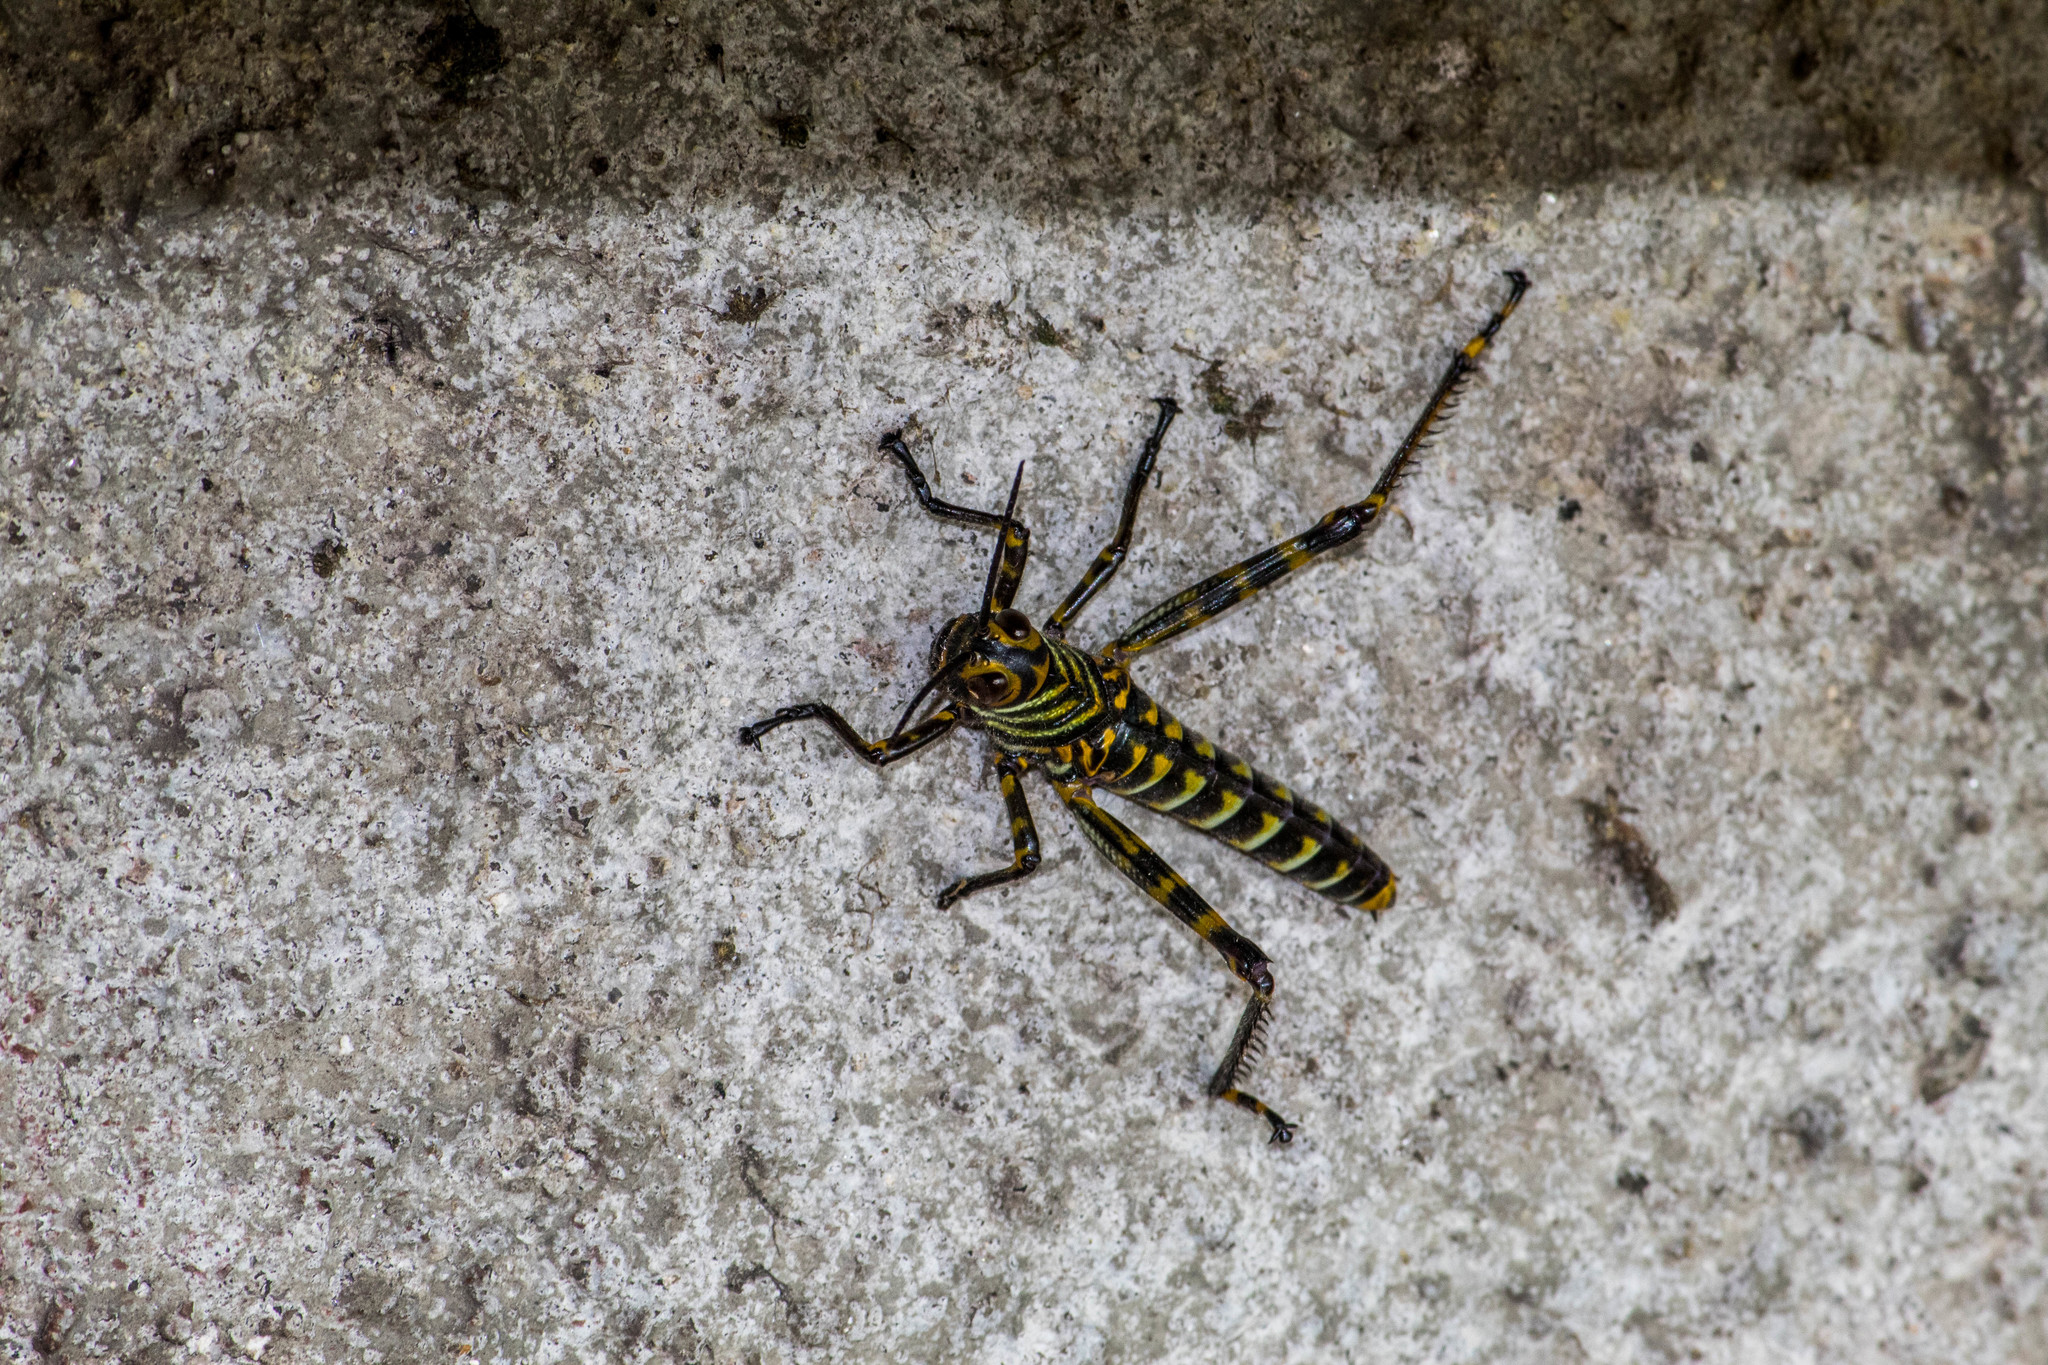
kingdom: Animalia
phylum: Arthropoda
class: Insecta
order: Orthoptera
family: Romaleidae
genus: Tropidacris
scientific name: Tropidacris cristata
